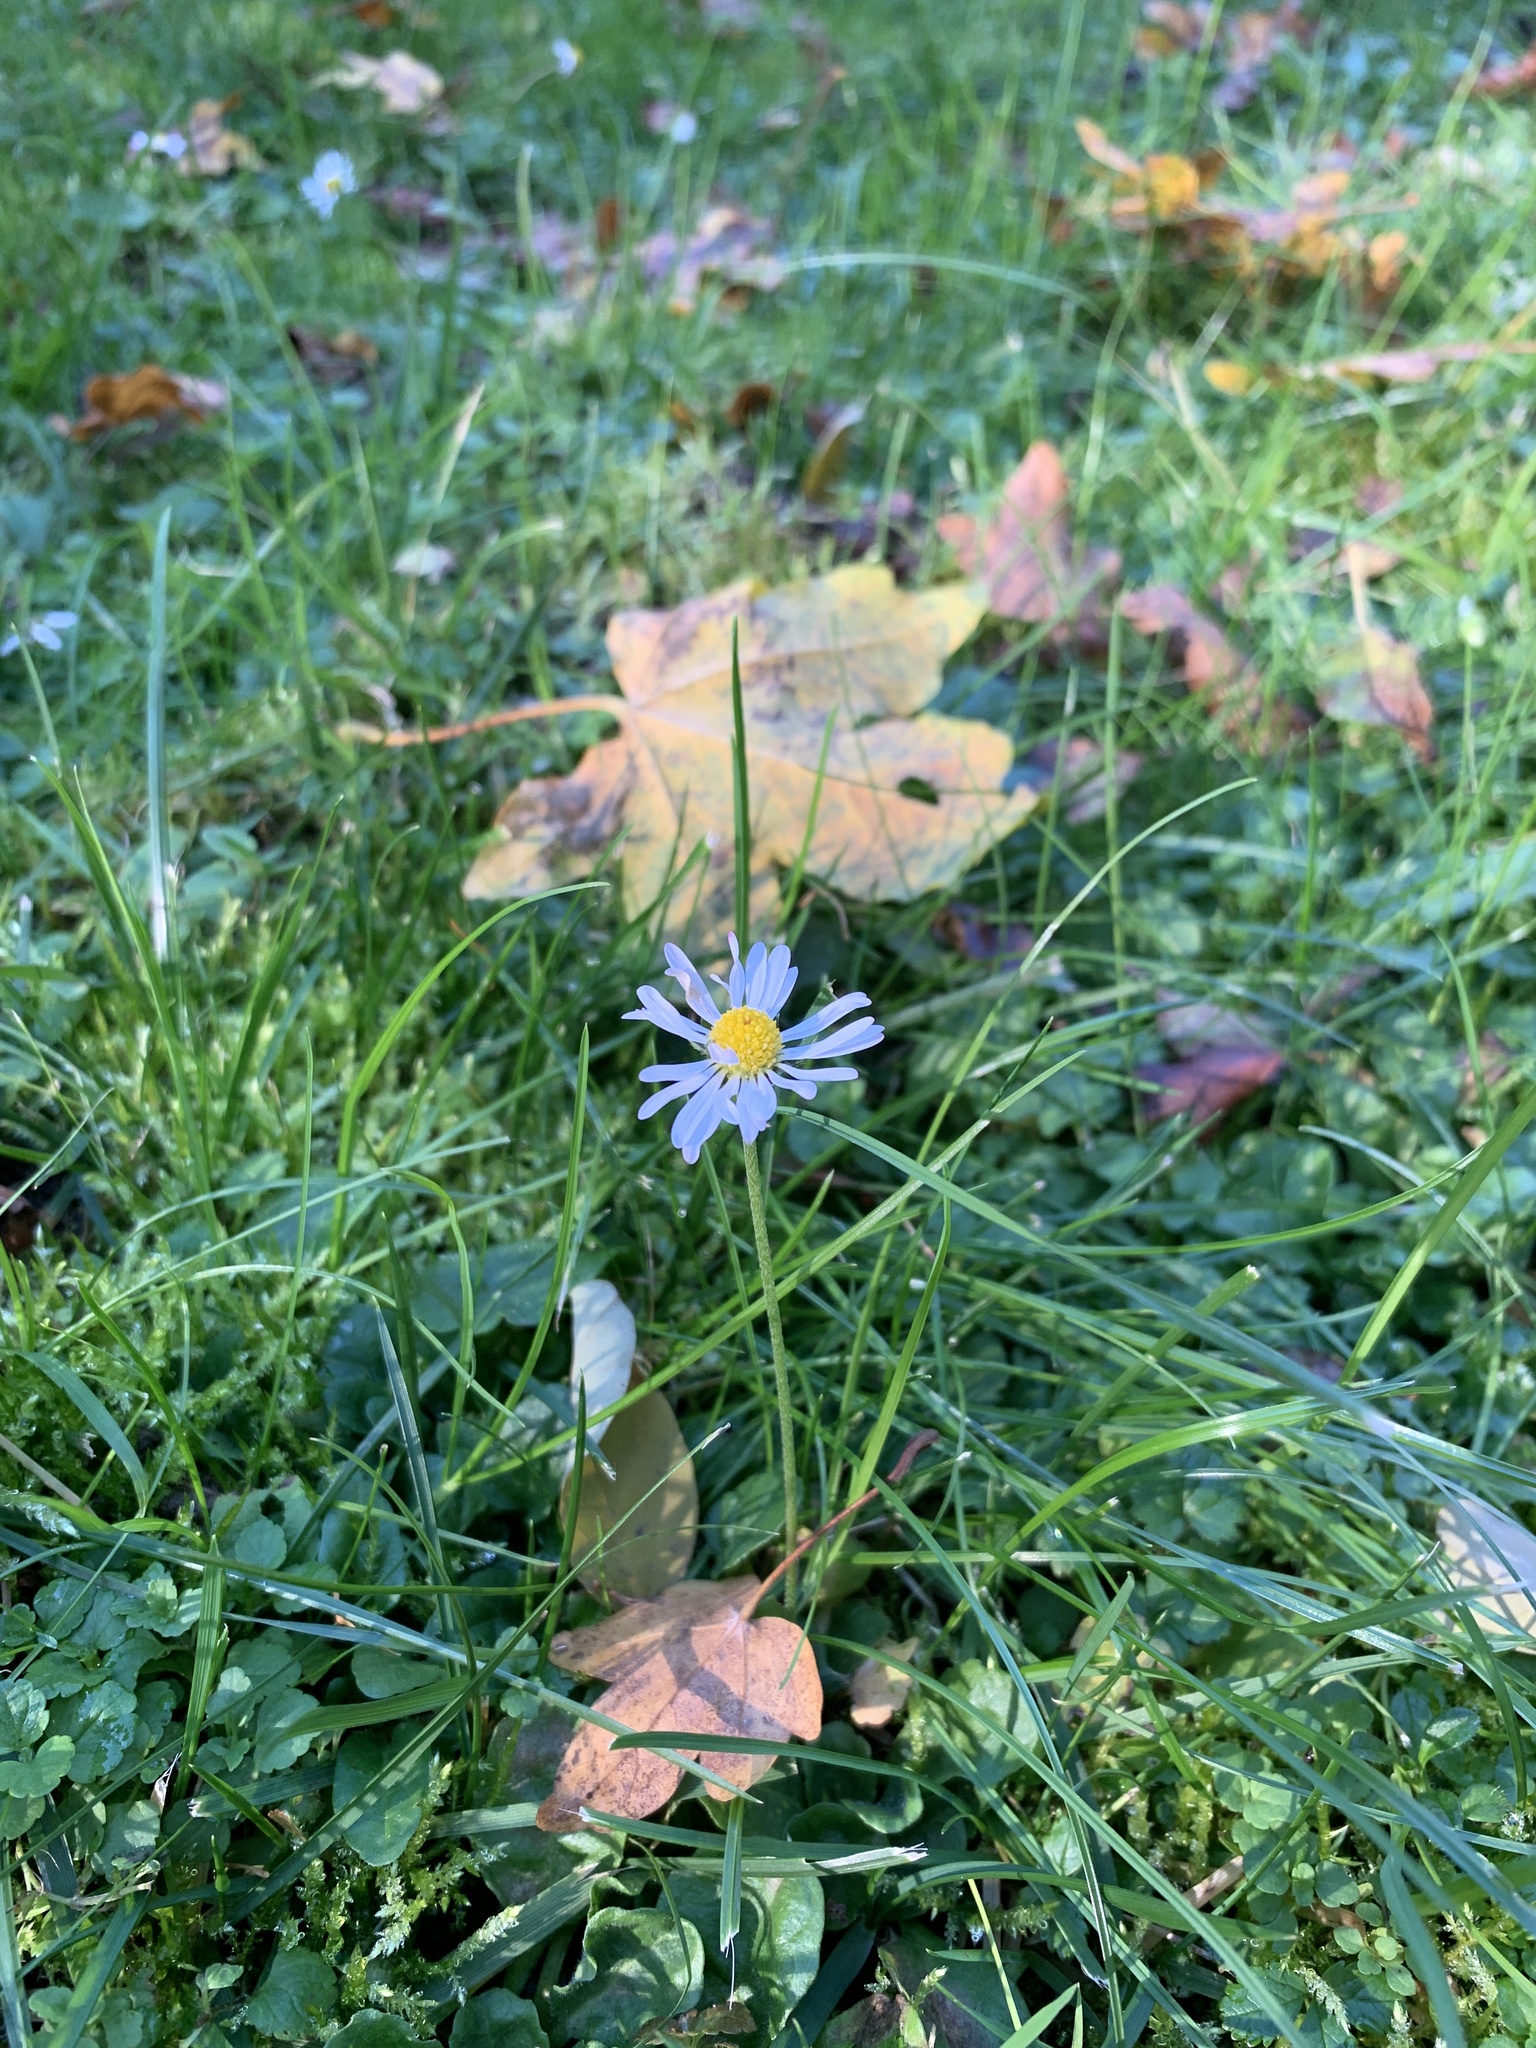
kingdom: Plantae
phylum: Tracheophyta
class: Magnoliopsida
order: Asterales
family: Asteraceae
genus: Bellis
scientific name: Bellis perennis
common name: Lawndaisy
